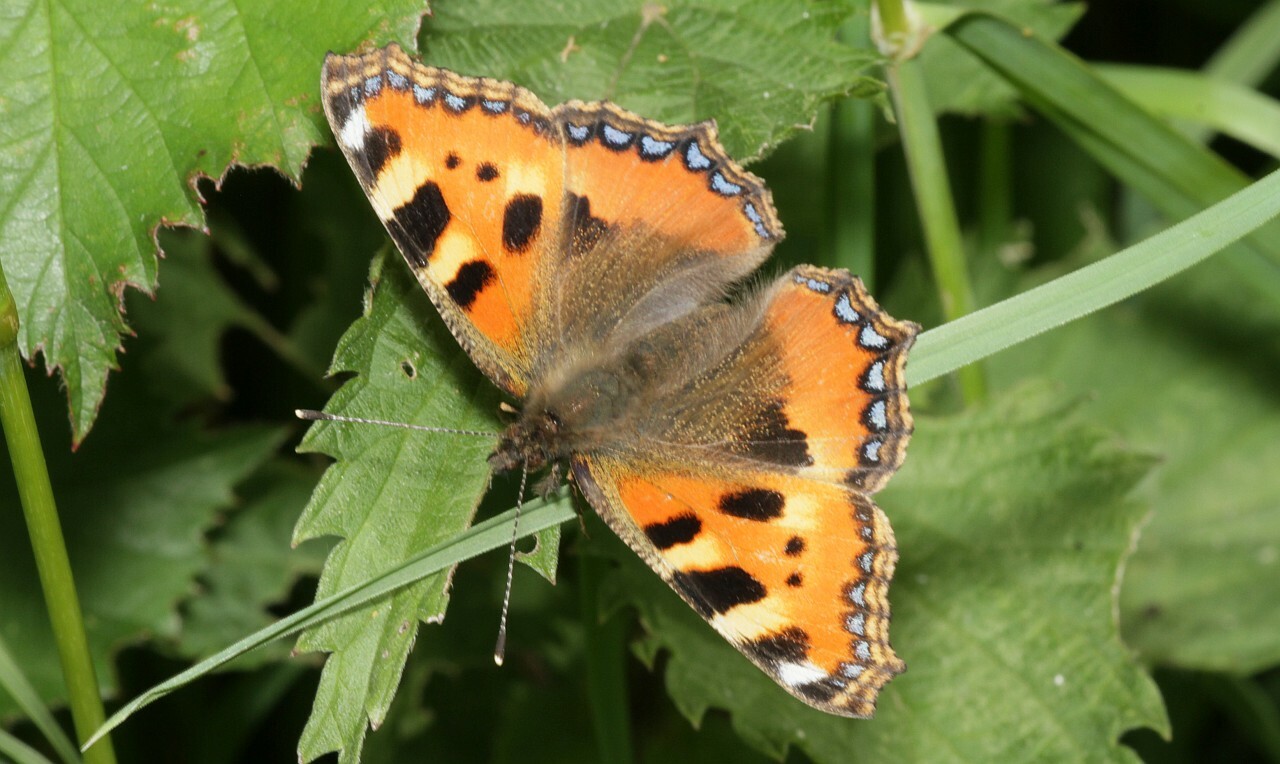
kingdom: Animalia
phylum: Arthropoda
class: Insecta
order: Lepidoptera
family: Nymphalidae
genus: Aglais
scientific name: Aglais urticae
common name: Small tortoiseshell
